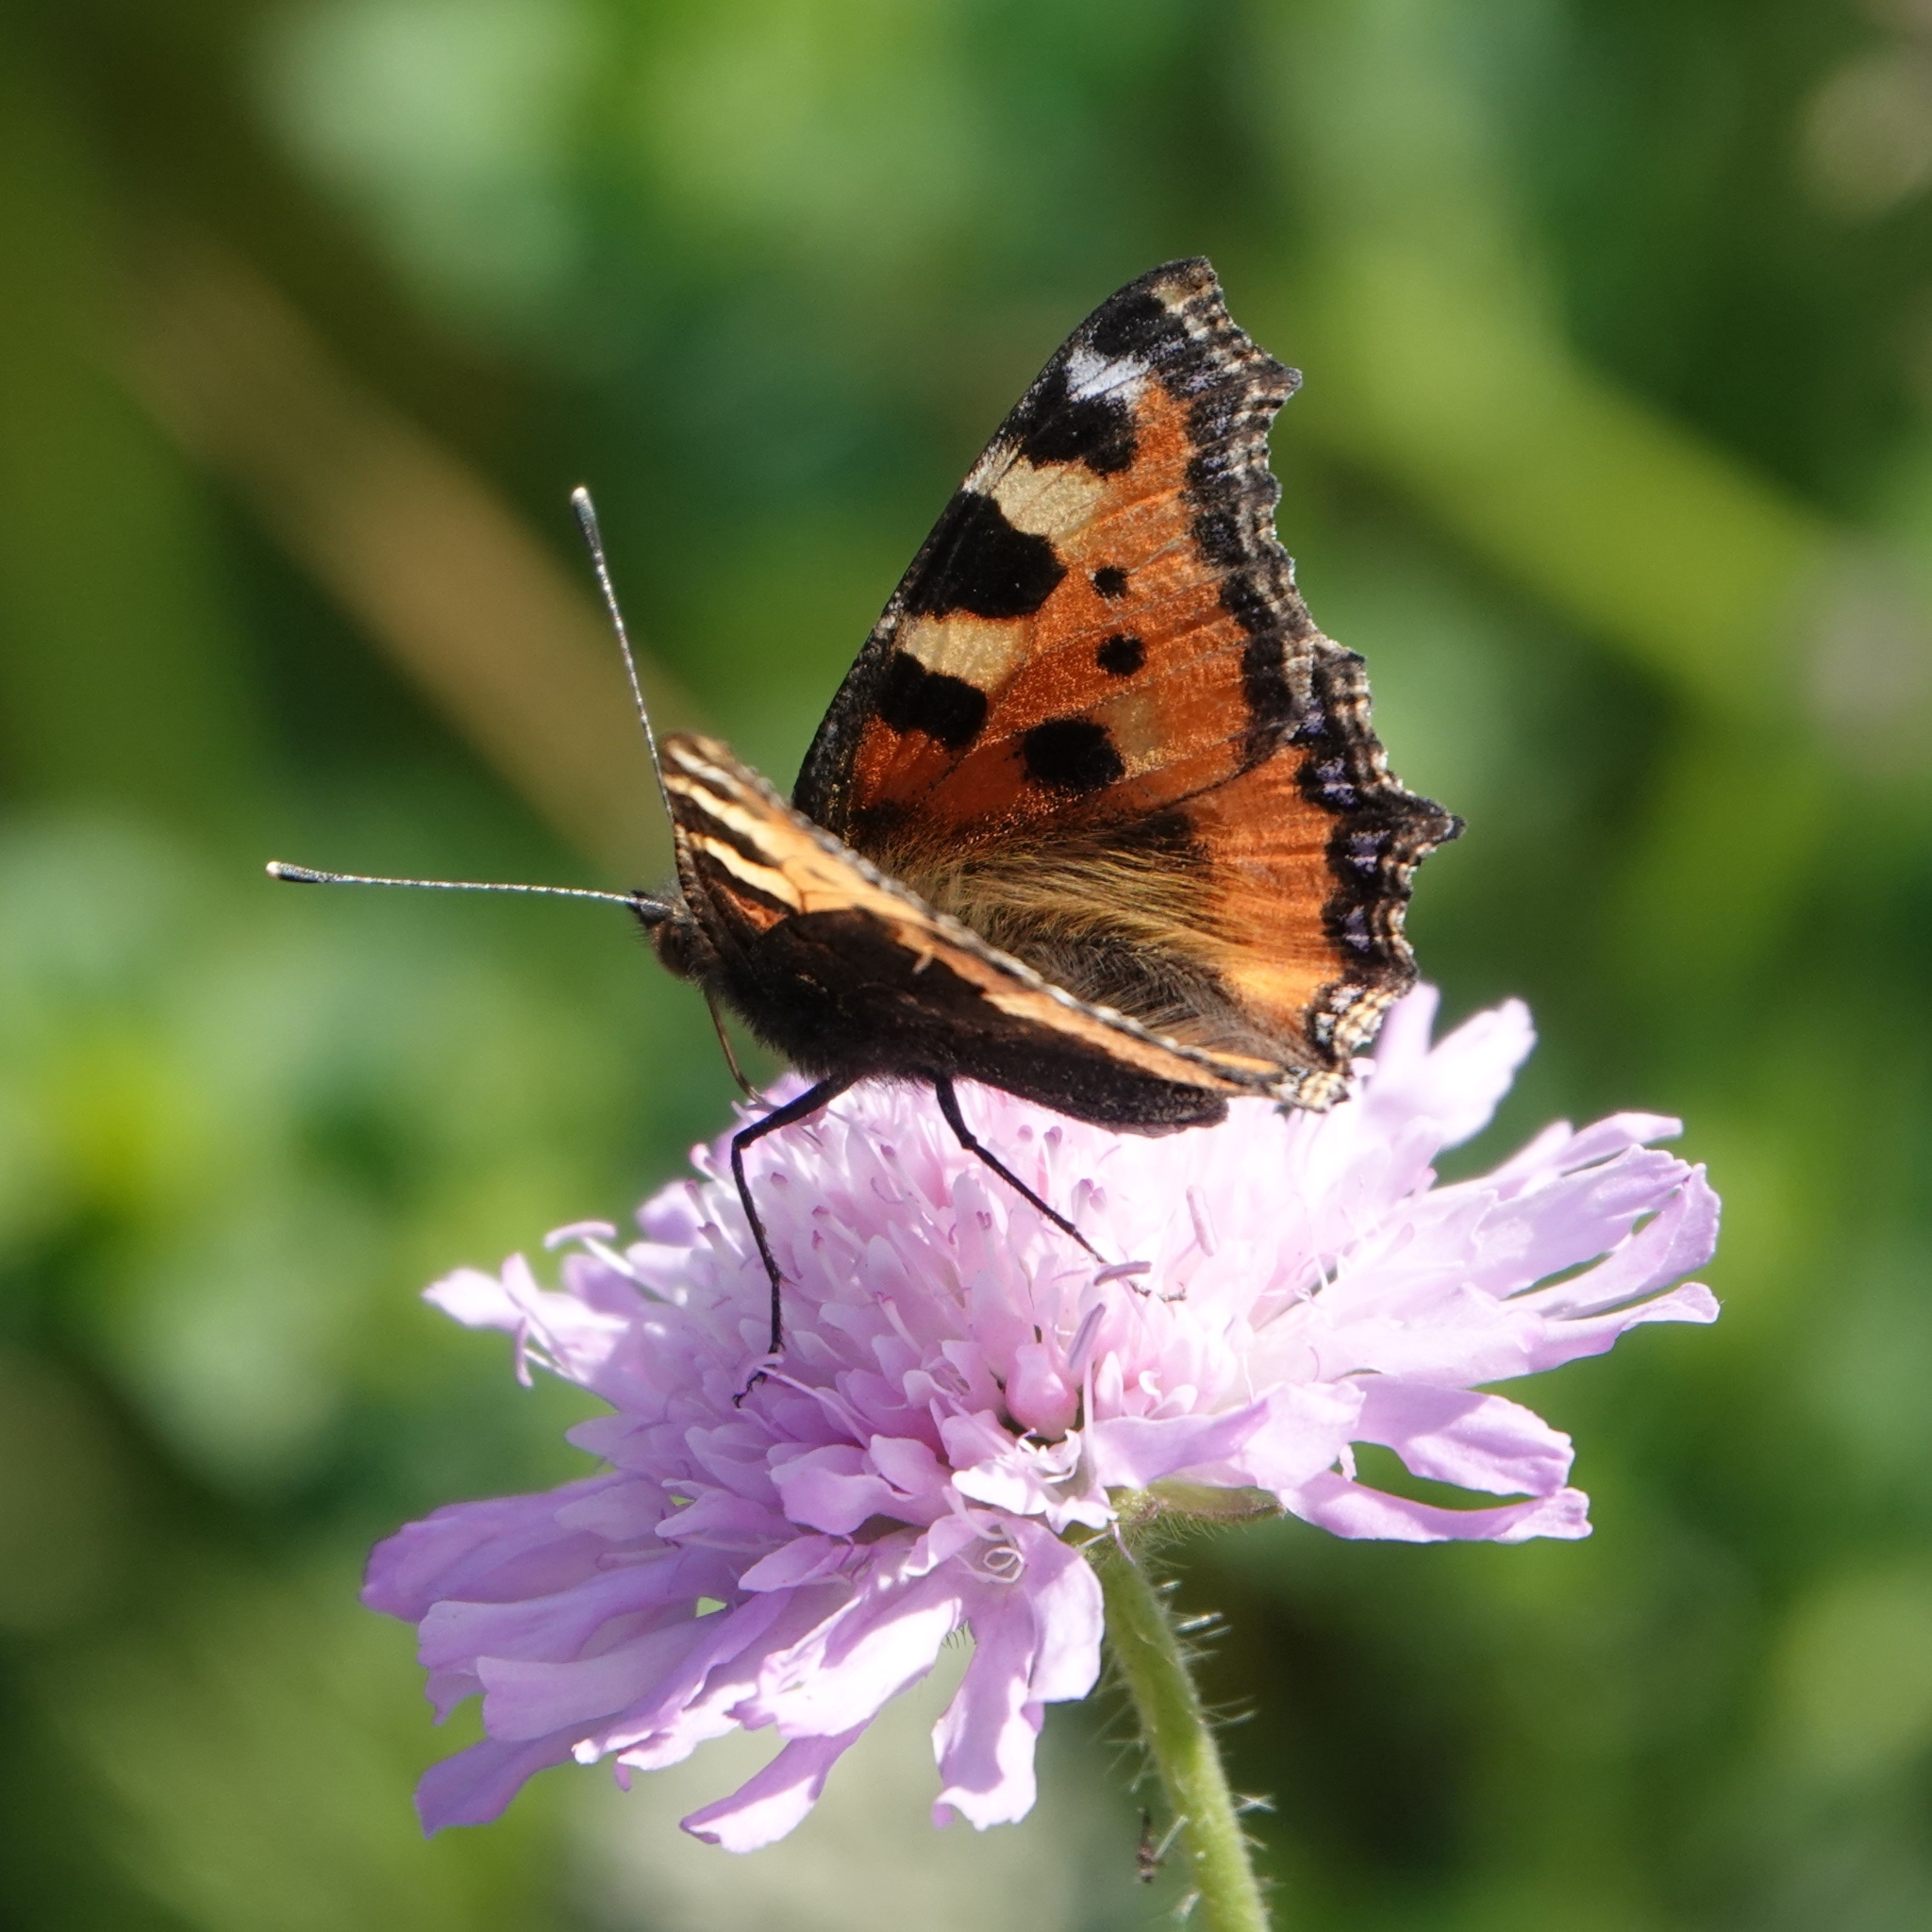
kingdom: Animalia
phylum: Arthropoda
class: Insecta
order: Lepidoptera
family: Nymphalidae
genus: Aglais
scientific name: Aglais urticae
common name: Small tortoiseshell
